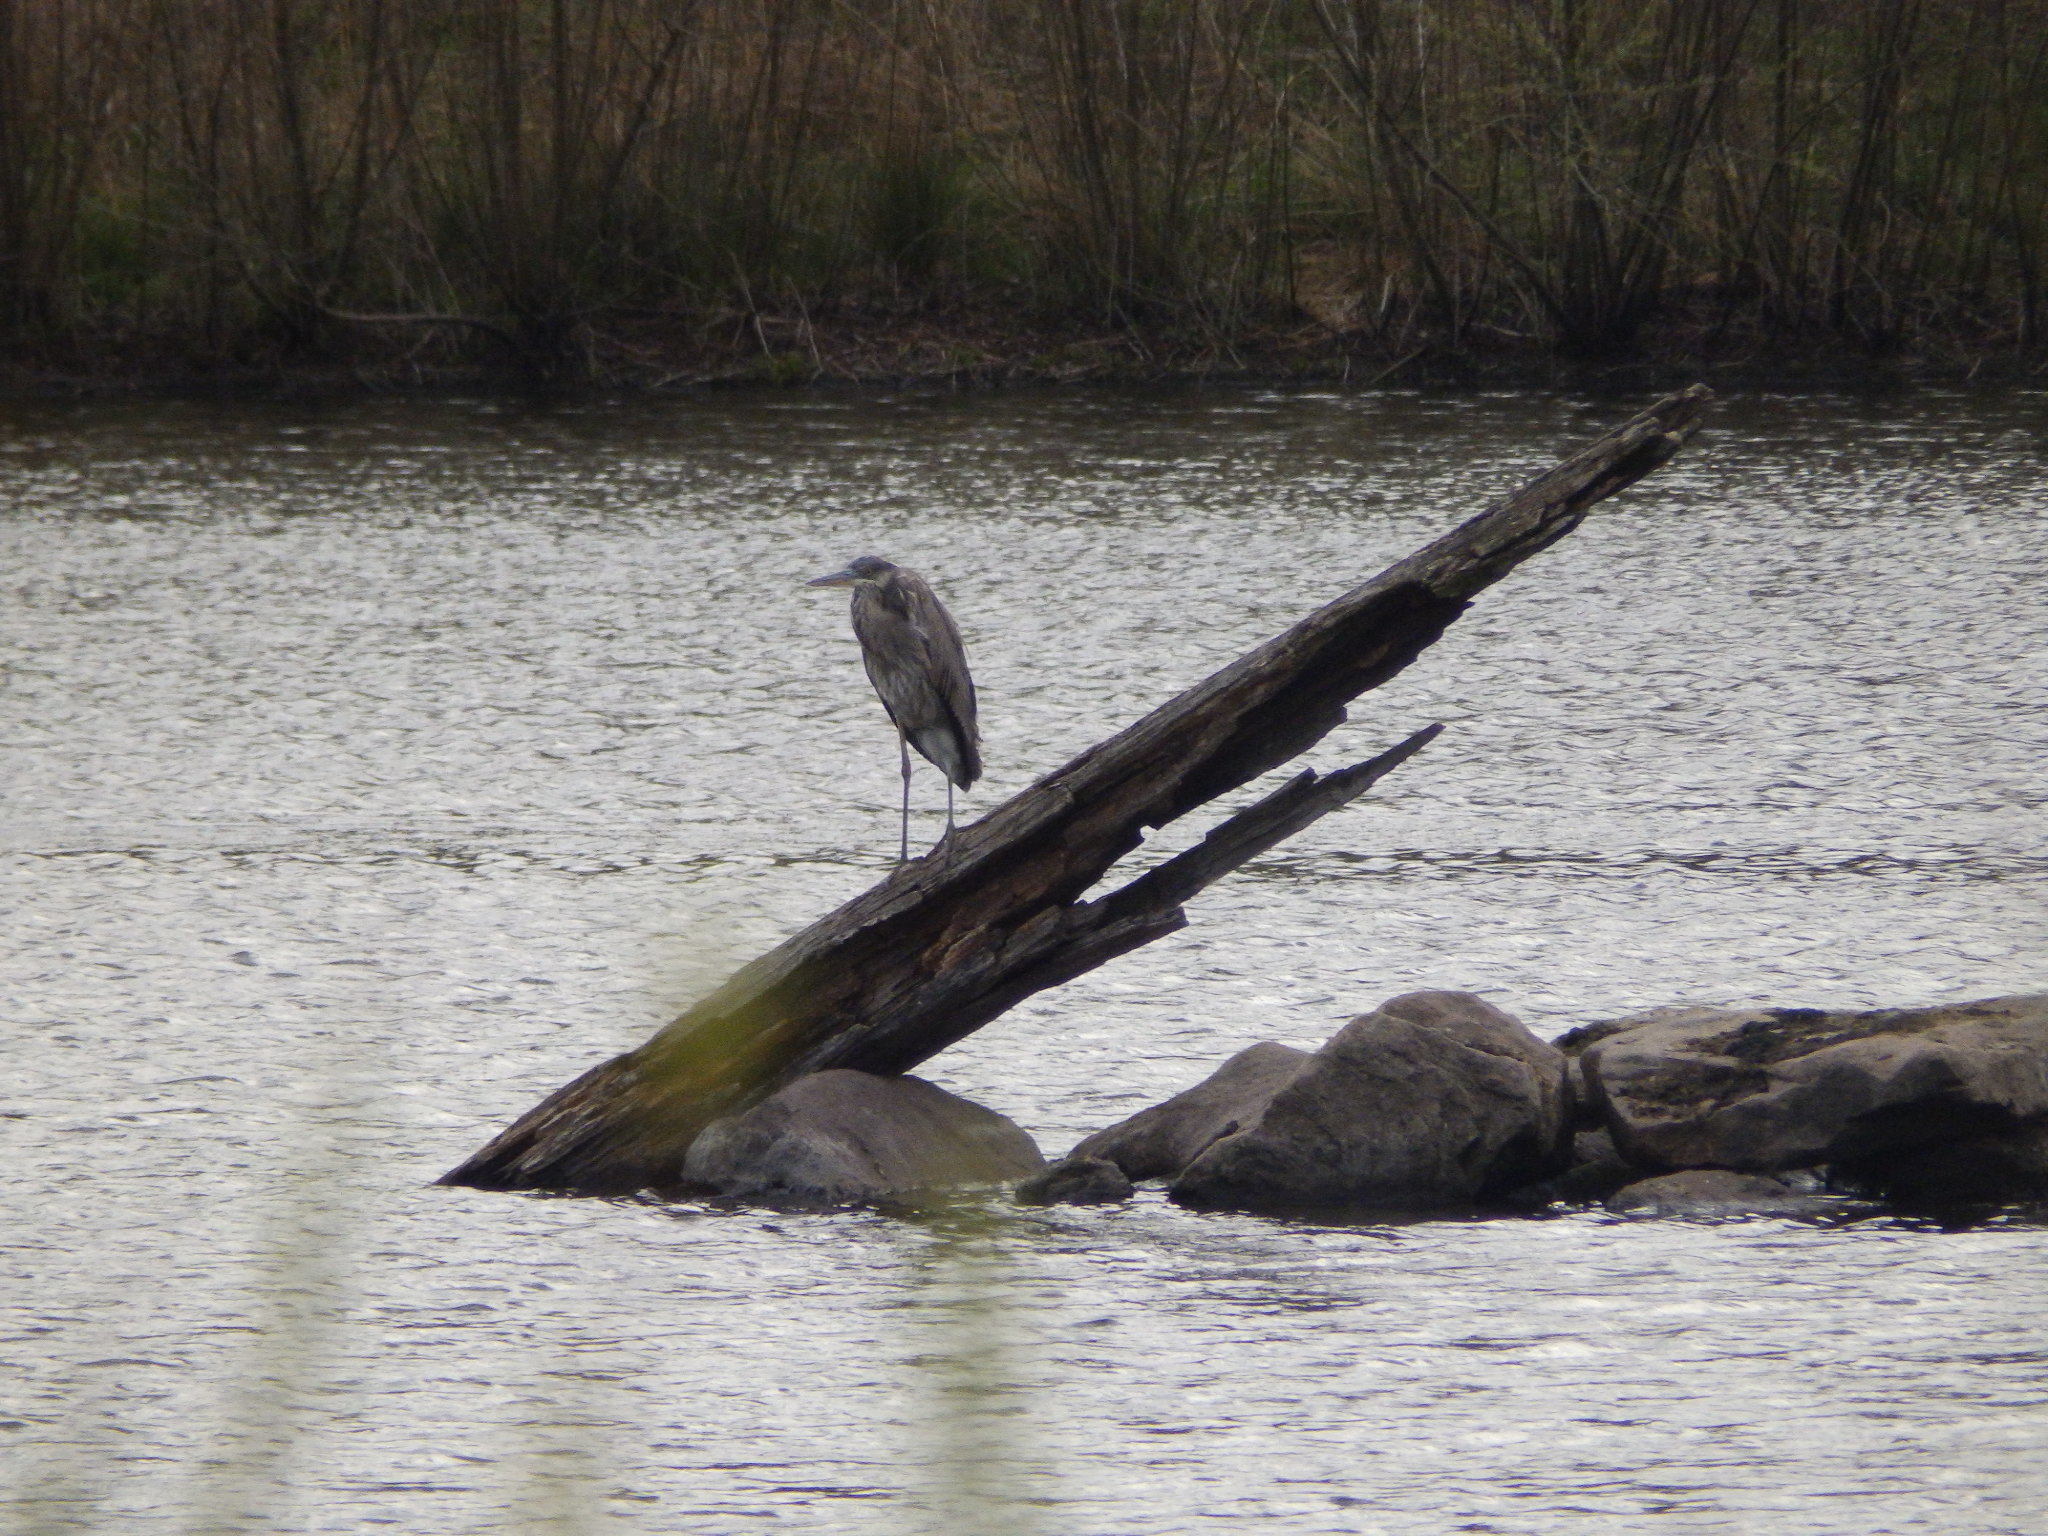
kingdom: Animalia
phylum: Chordata
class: Aves
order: Pelecaniformes
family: Ardeidae
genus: Ardea
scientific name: Ardea herodias
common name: Great blue heron
